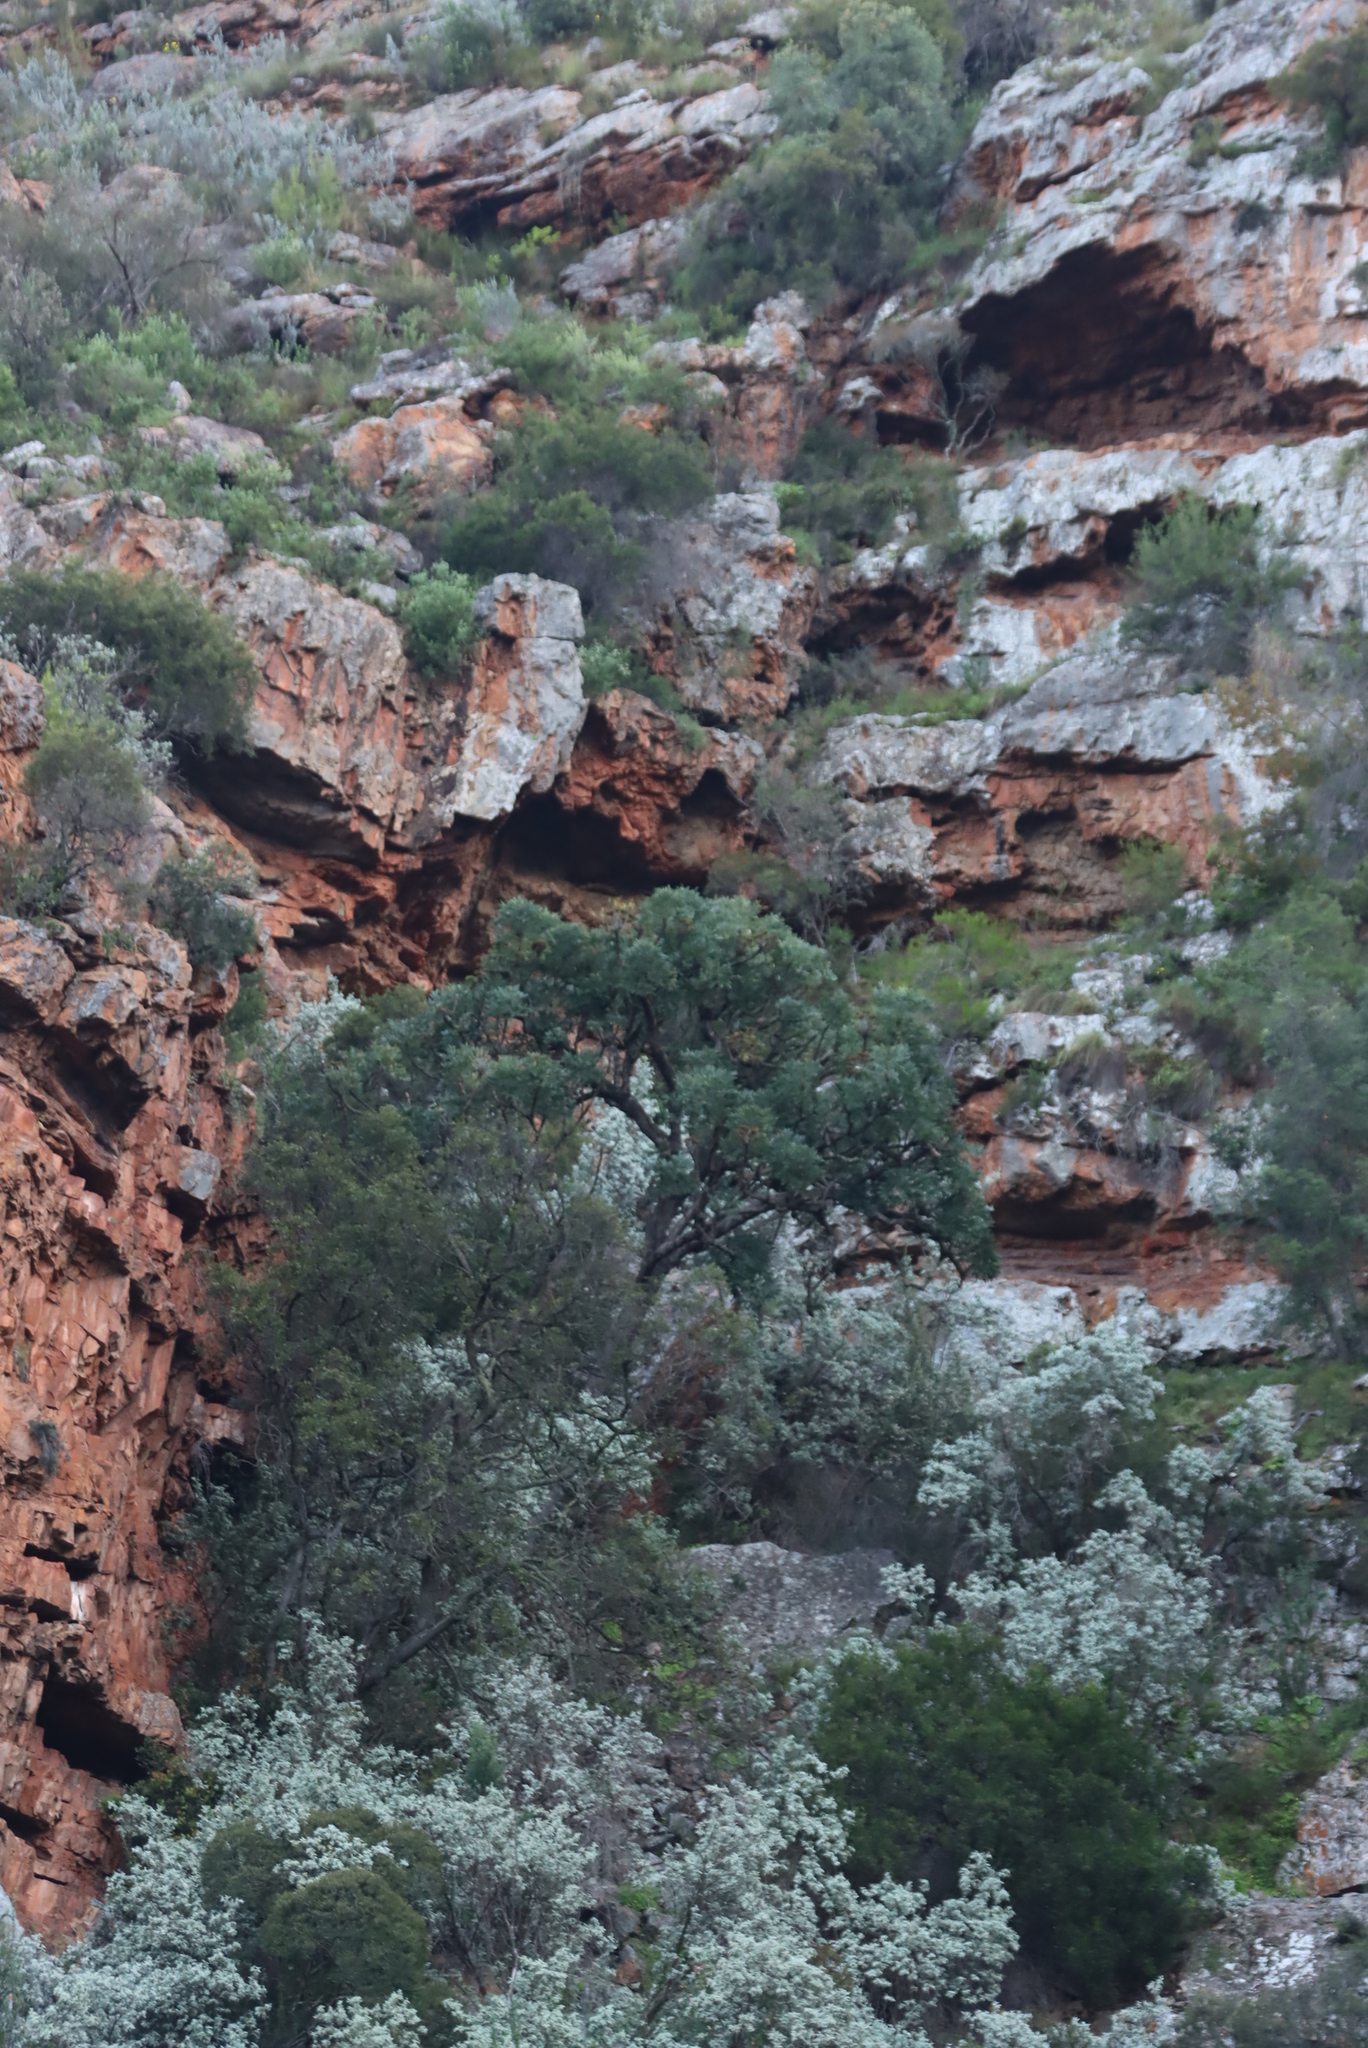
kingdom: Plantae
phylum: Tracheophyta
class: Magnoliopsida
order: Lamiales
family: Scrophulariaceae
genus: Buddleja
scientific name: Buddleja glomerata
